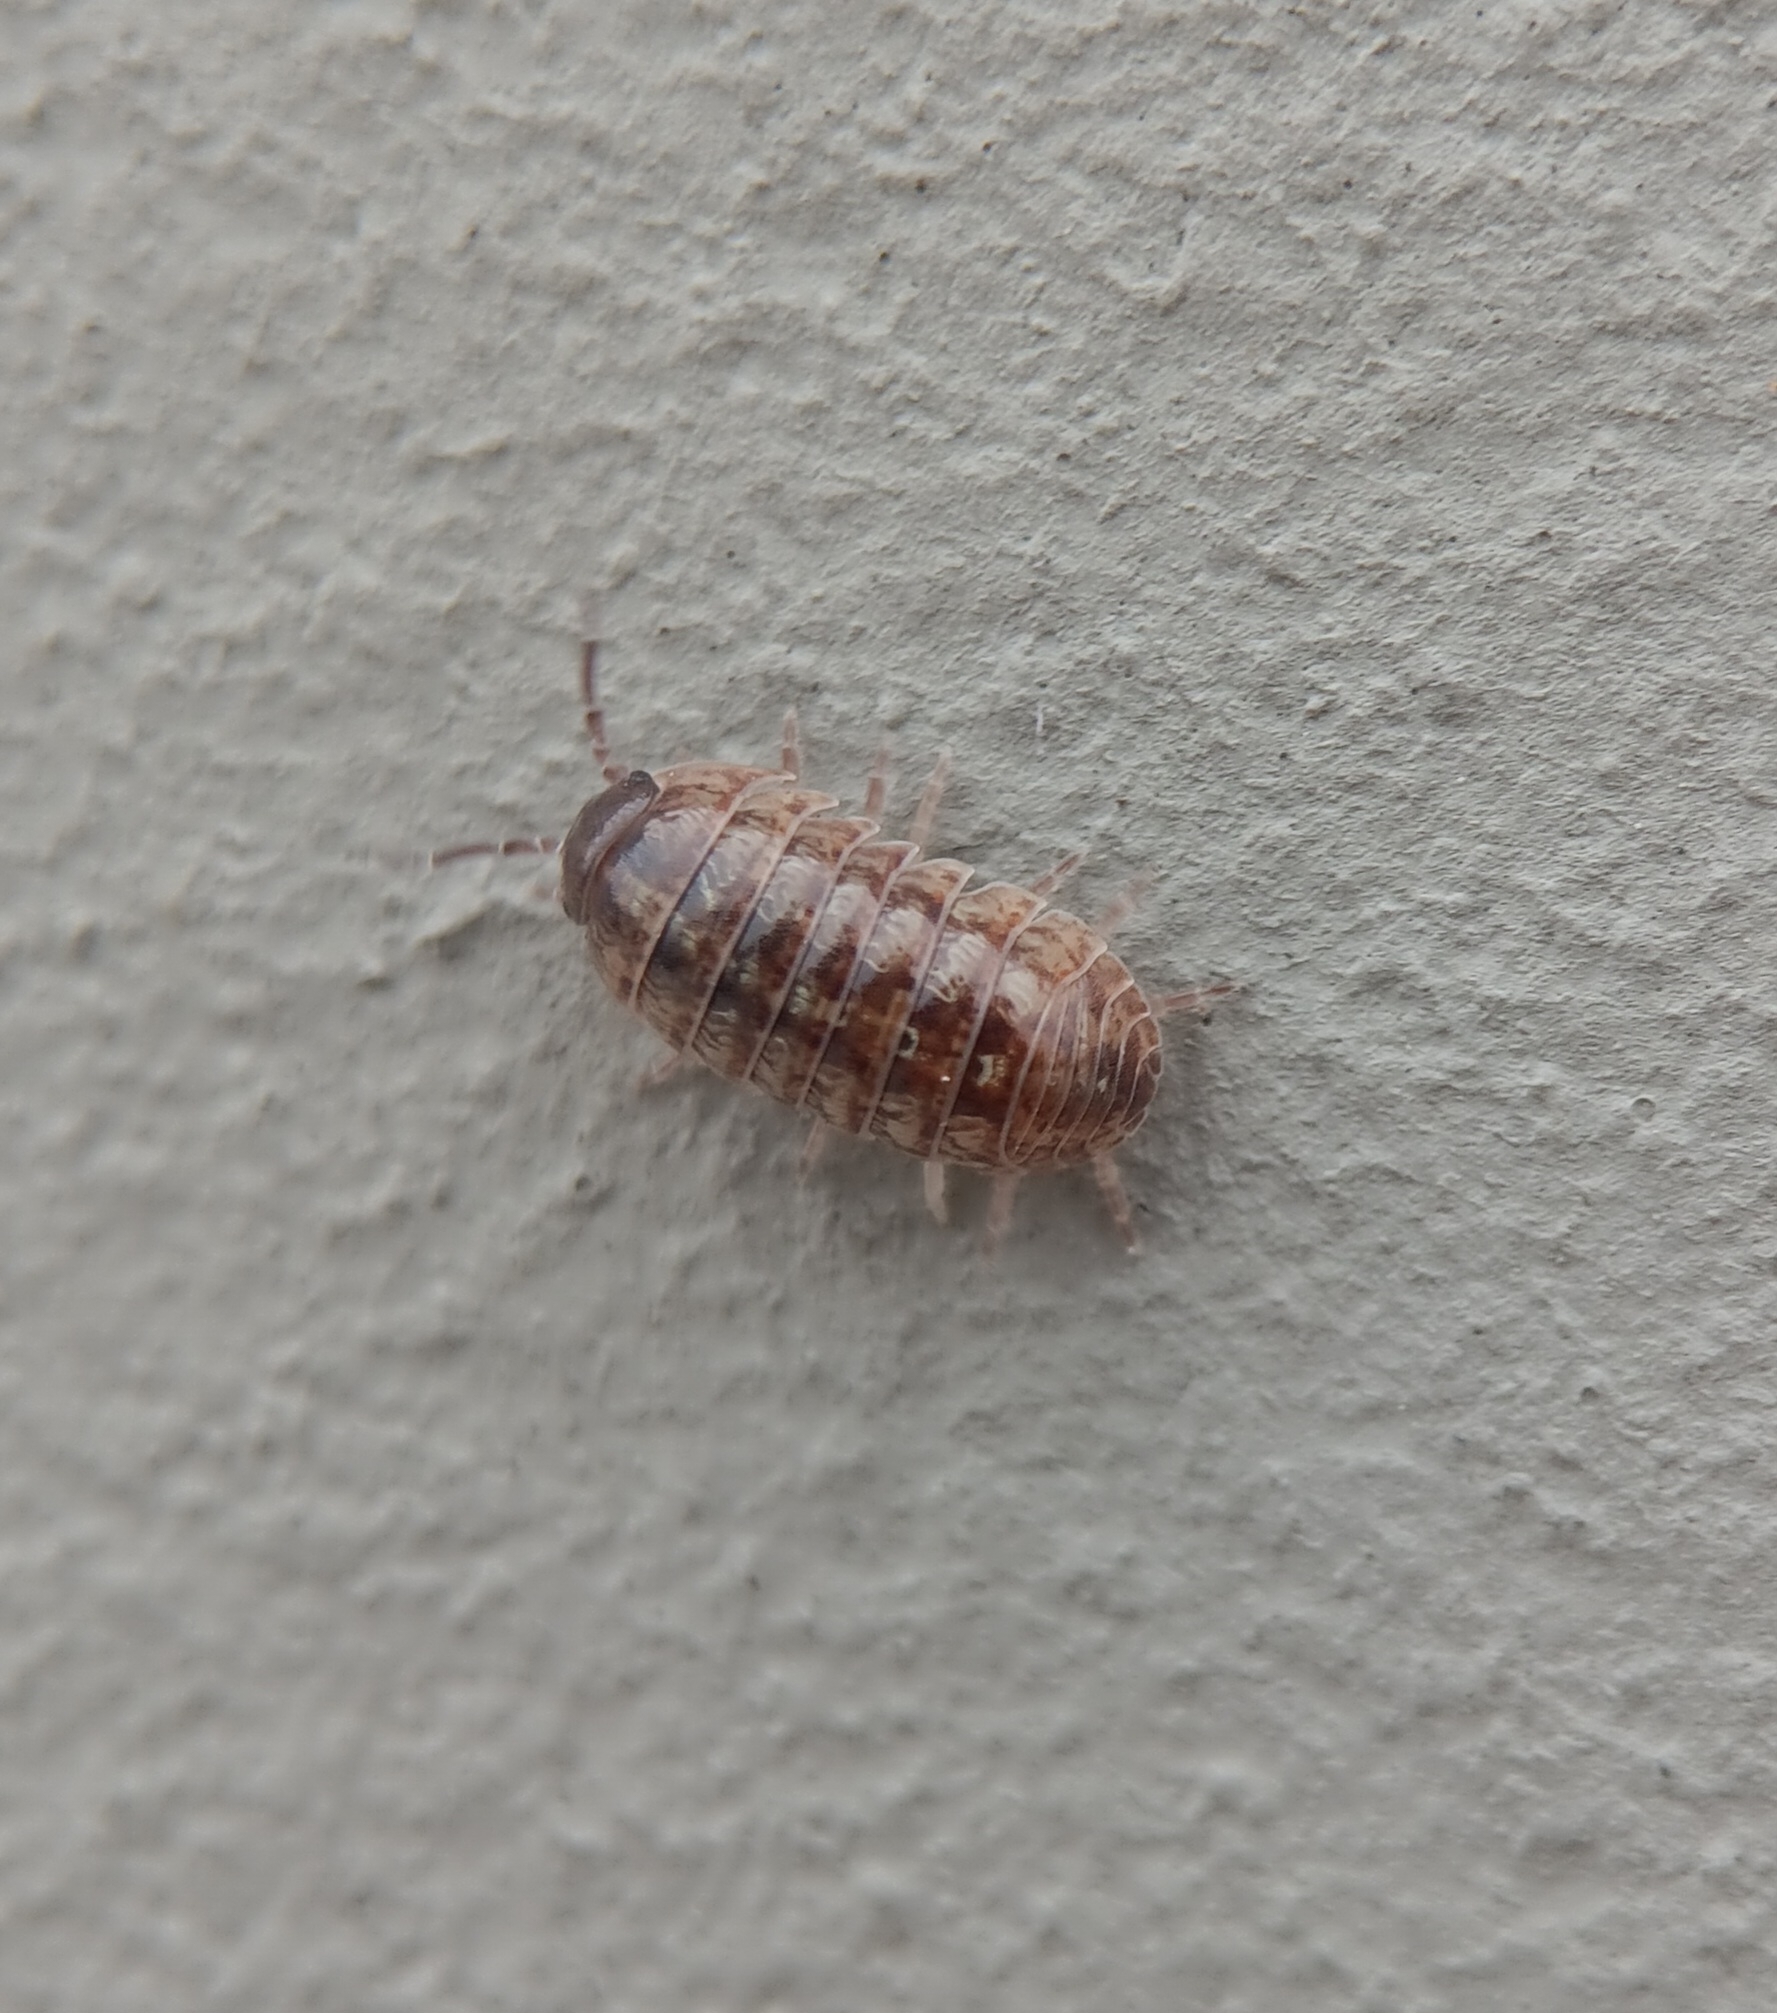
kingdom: Animalia
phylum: Arthropoda
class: Malacostraca
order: Isopoda
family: Armadillidiidae
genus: Armadillidium
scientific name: Armadillidium vulgare
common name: Common pill woodlouse
